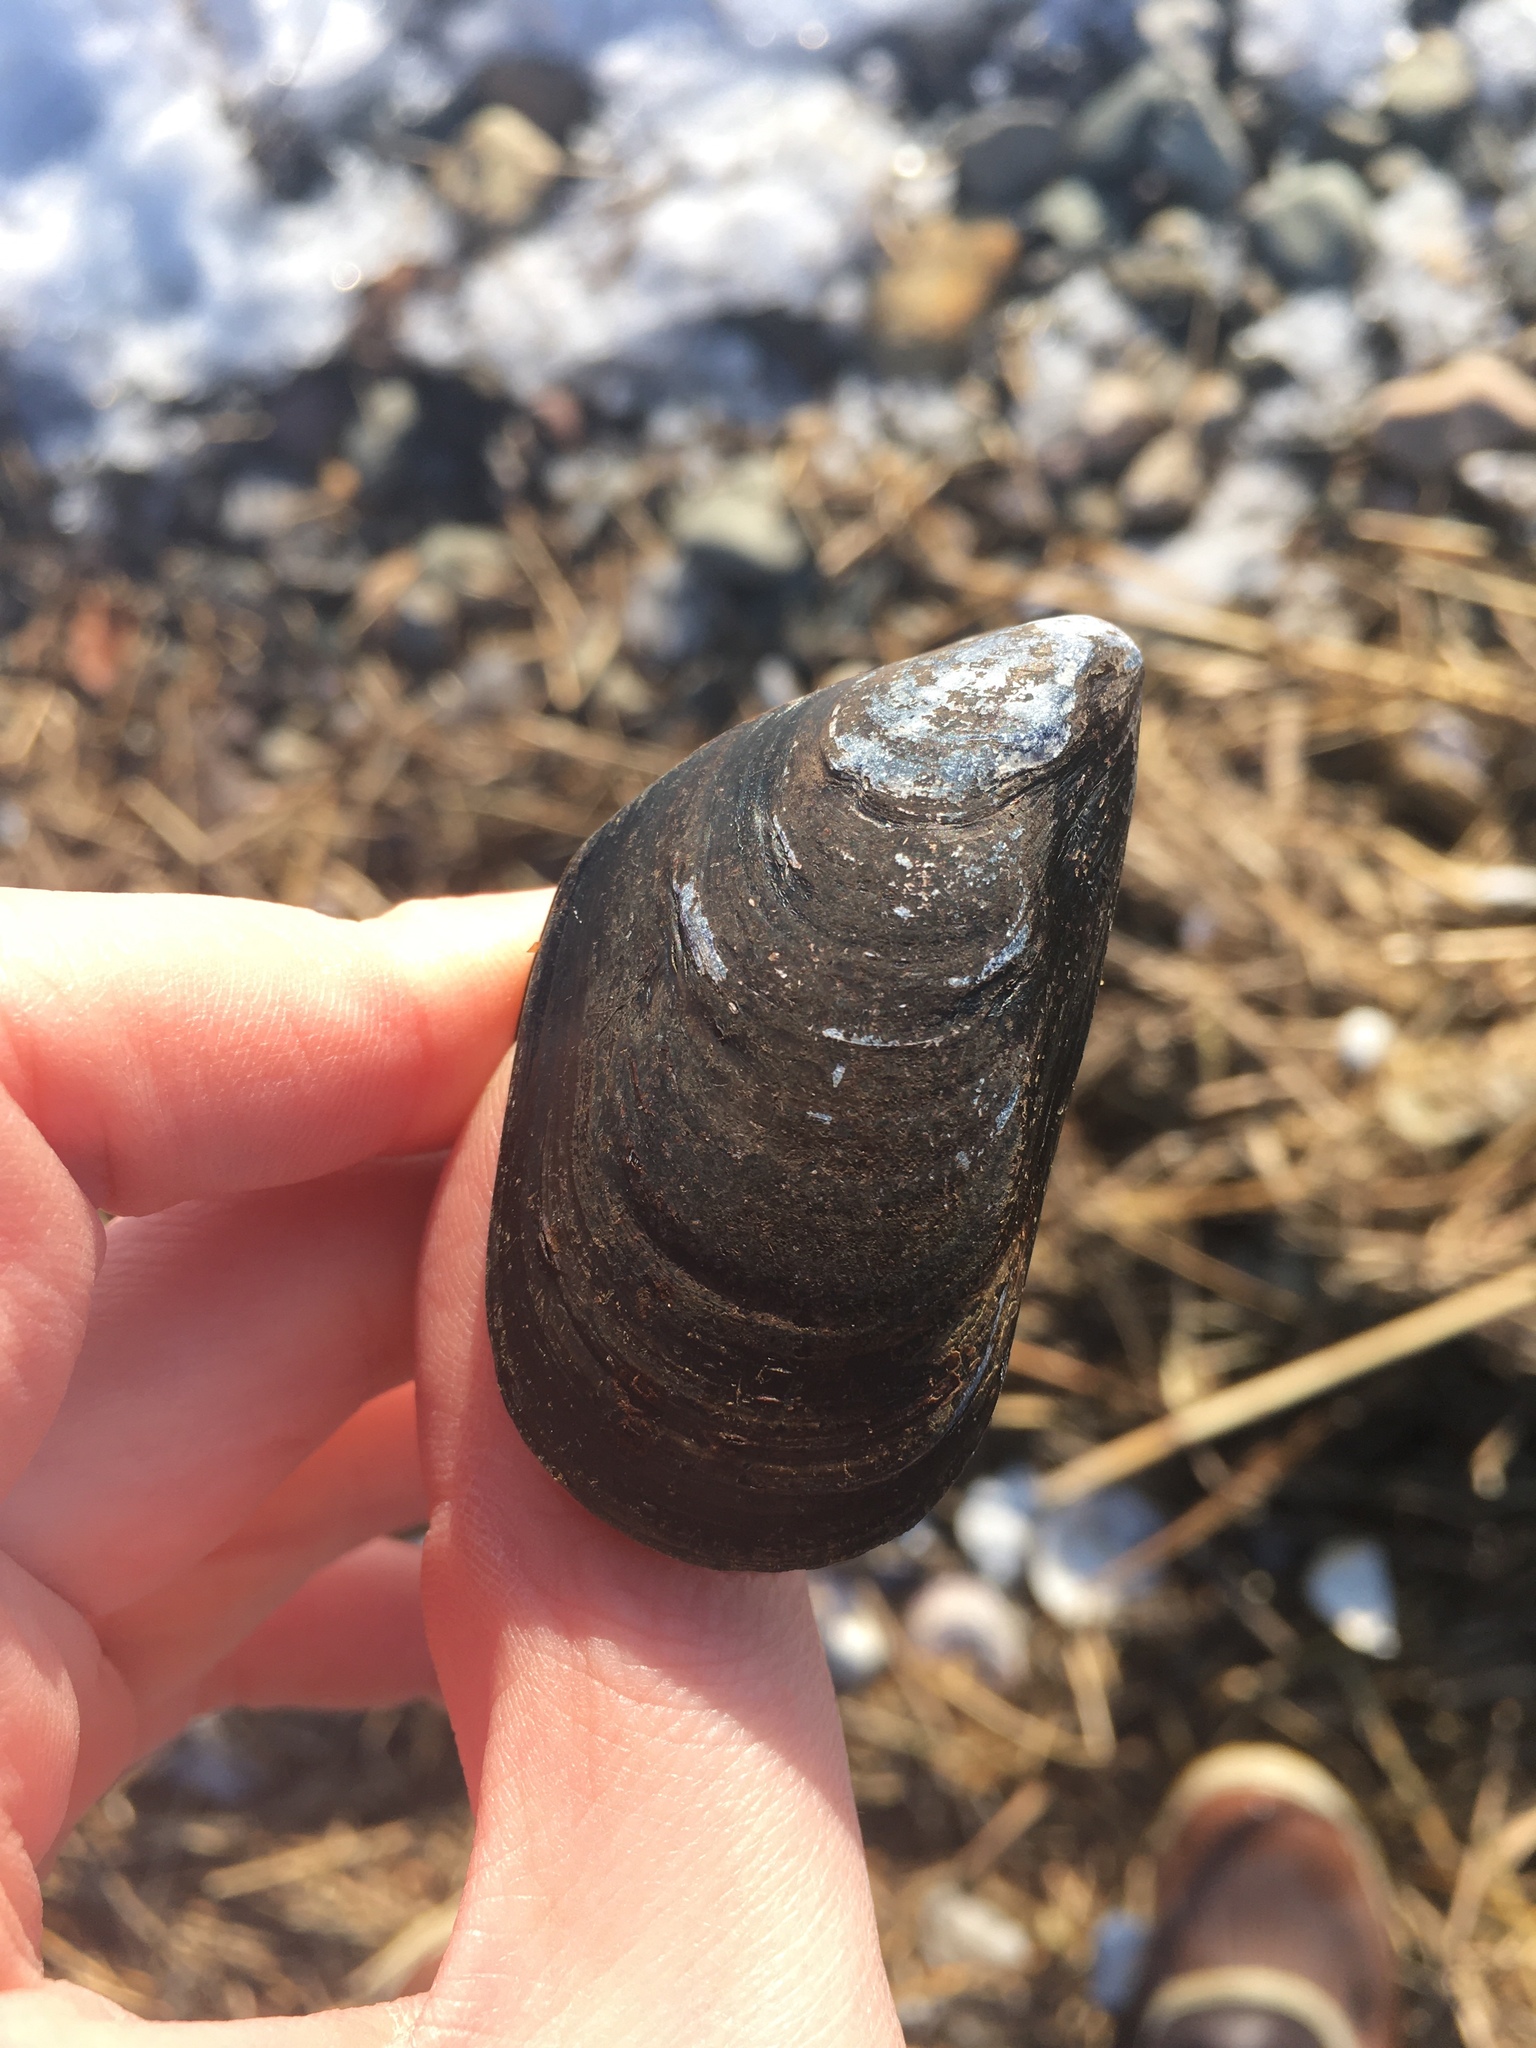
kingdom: Animalia
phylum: Mollusca
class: Bivalvia
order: Mytilida
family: Mytilidae
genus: Mytilus
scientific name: Mytilus edulis
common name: Blue mussel
